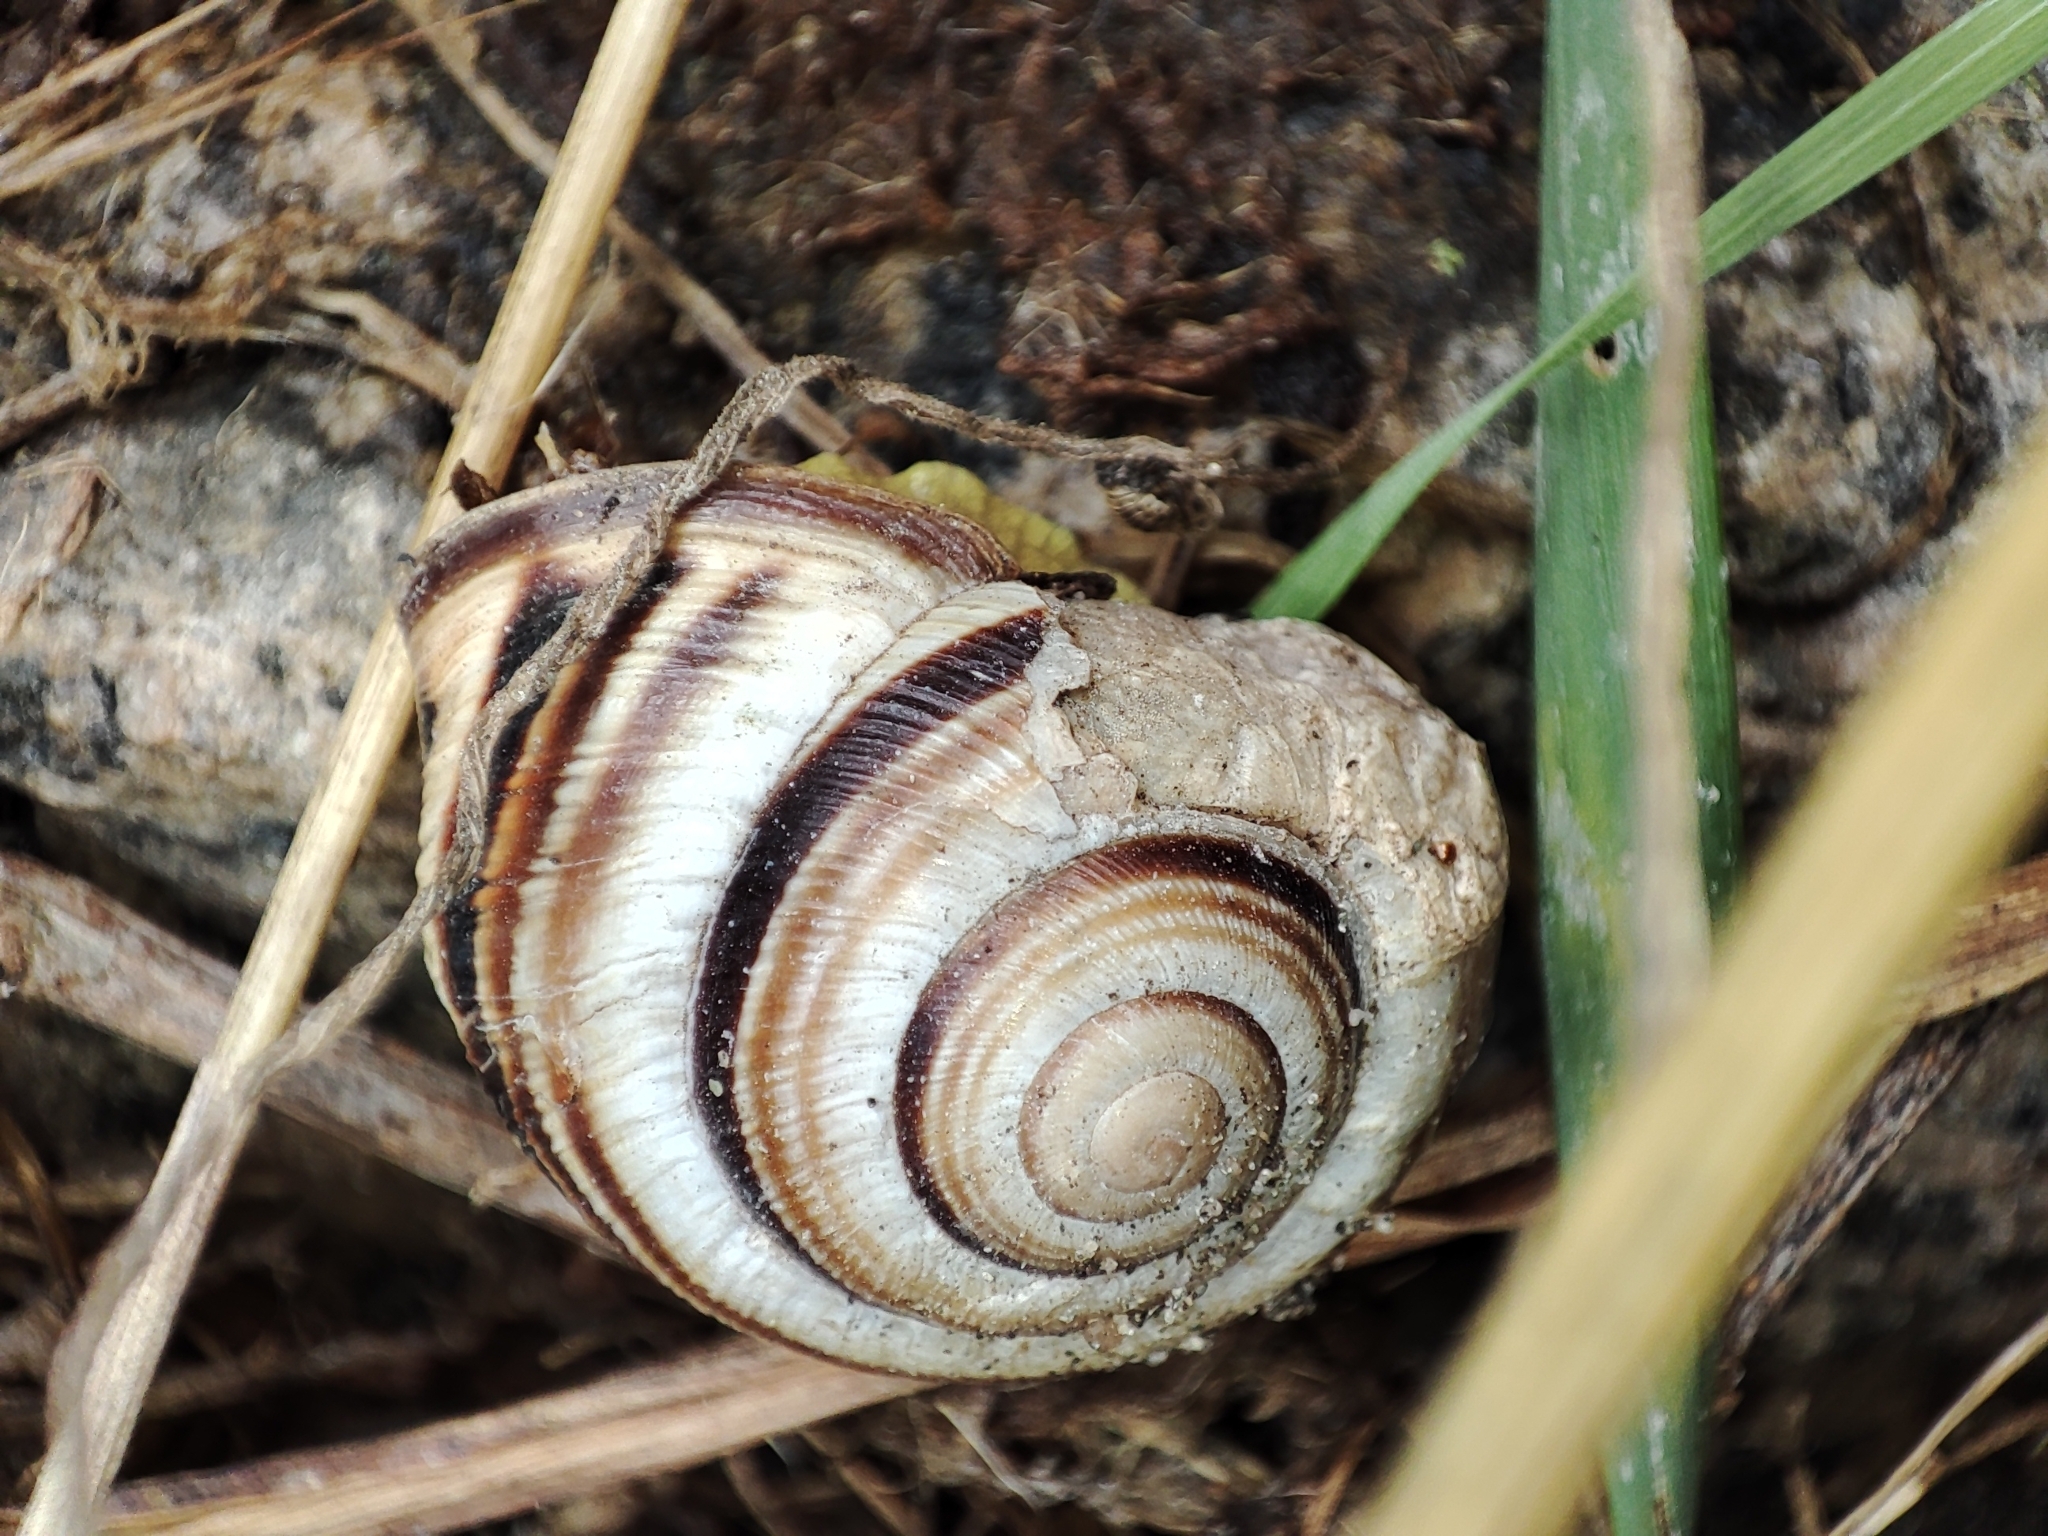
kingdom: Animalia
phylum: Mollusca
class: Gastropoda
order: Stylommatophora
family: Helicidae
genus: Caucasotachea
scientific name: Caucasotachea vindobonensis
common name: European helicid land snail
